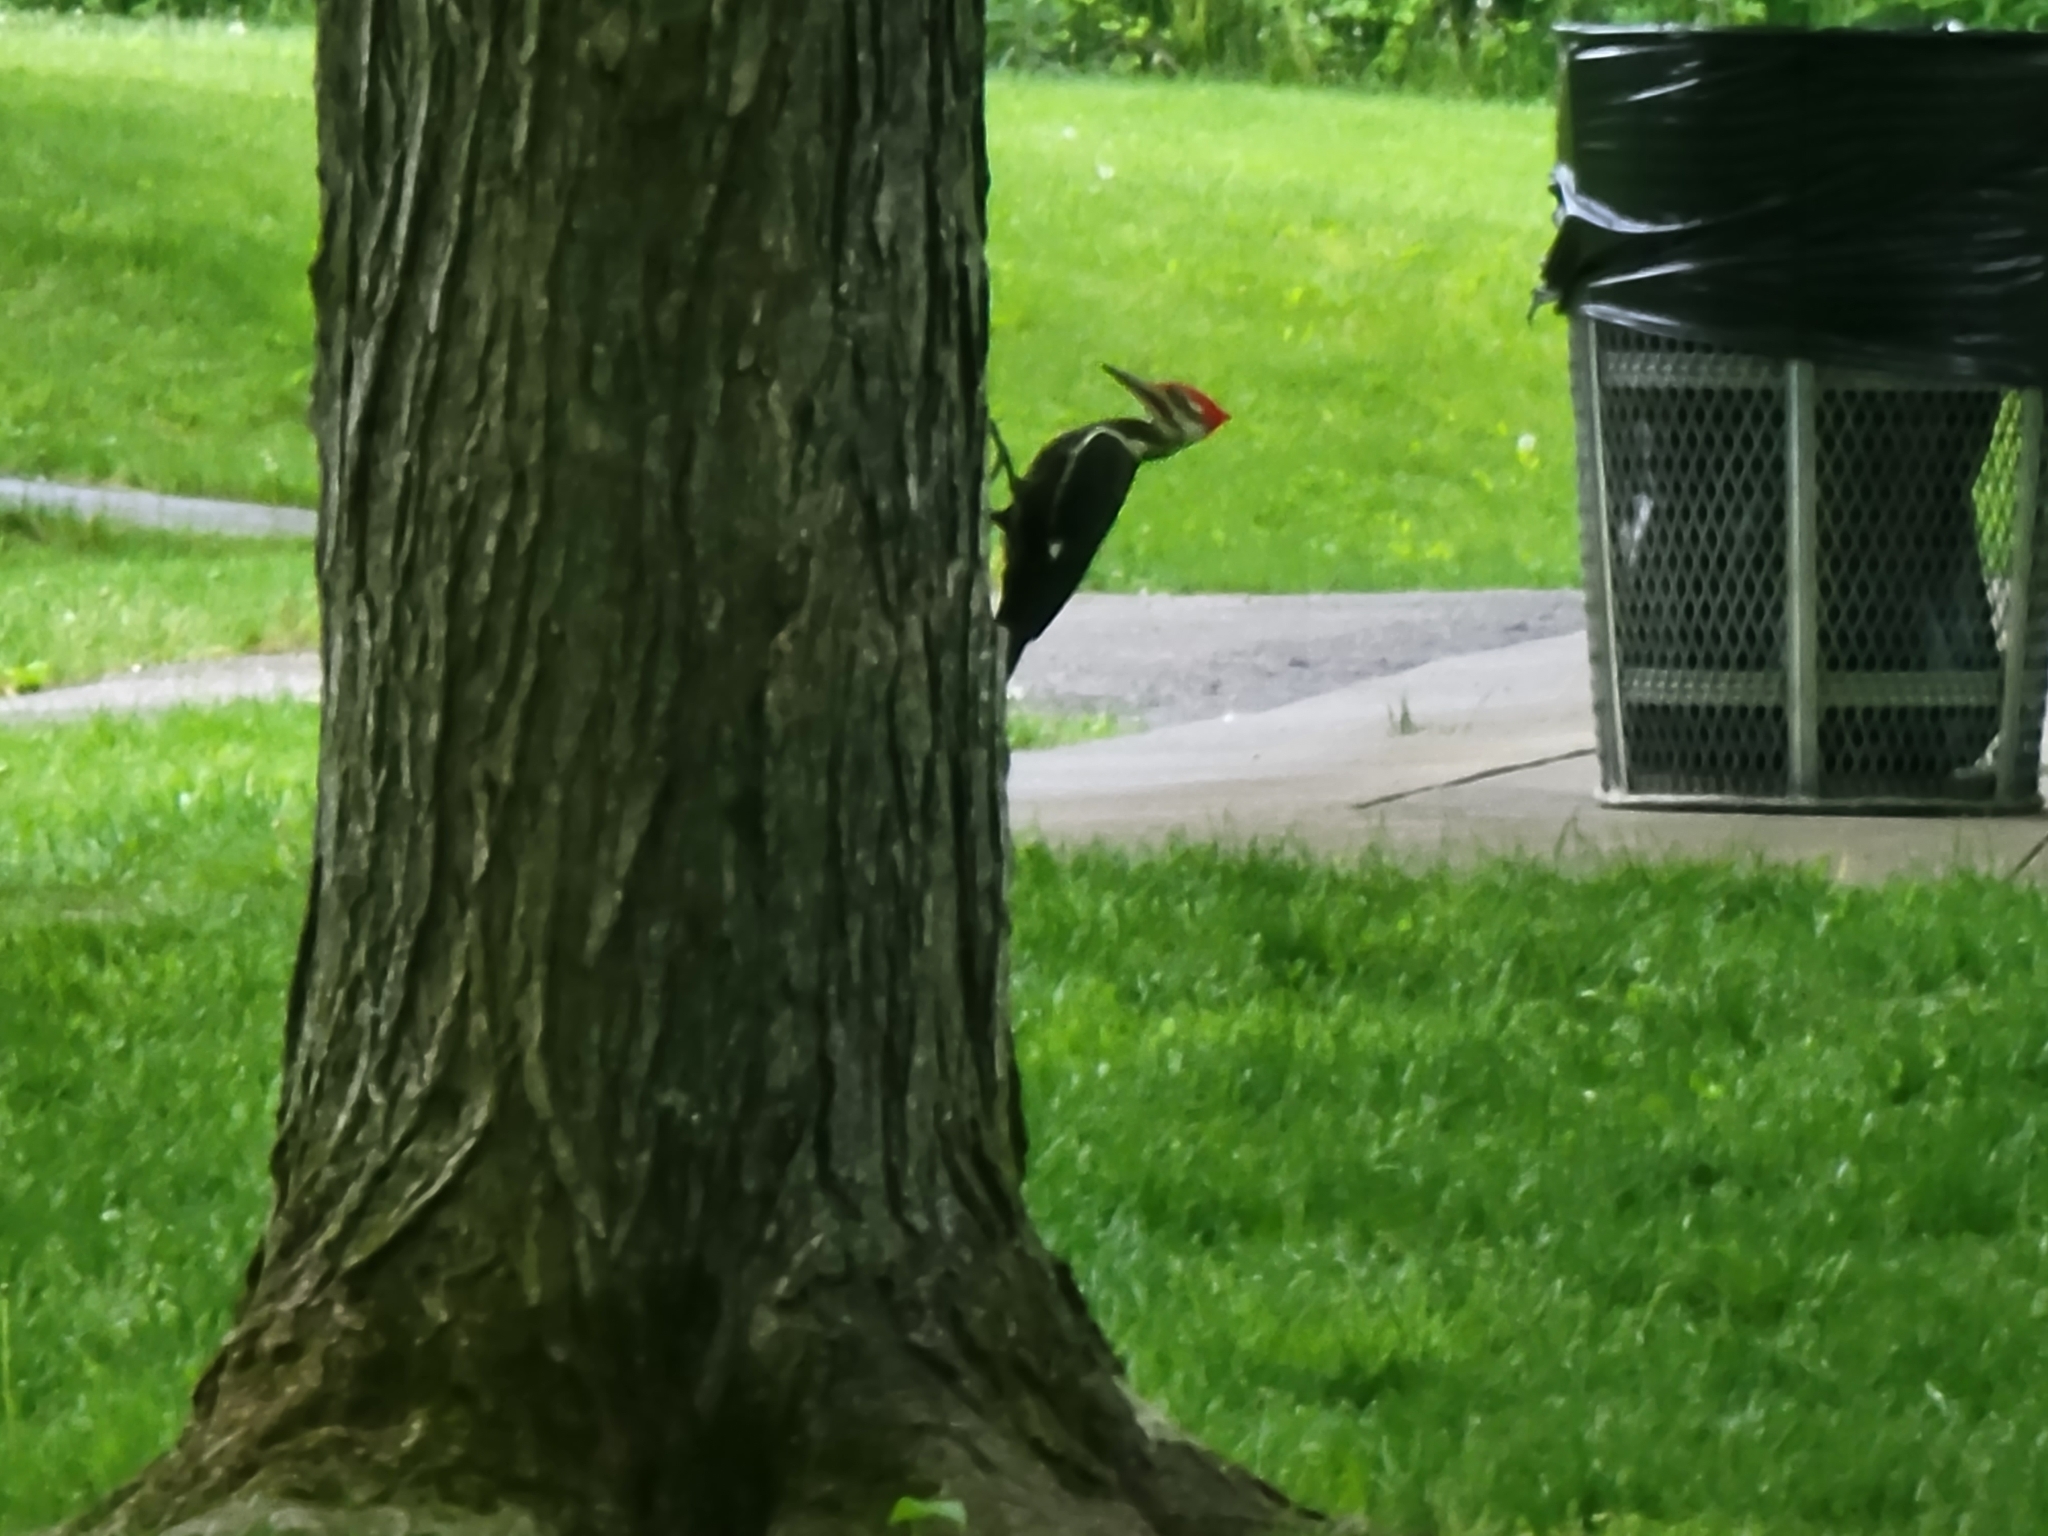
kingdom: Animalia
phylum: Chordata
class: Aves
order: Piciformes
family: Picidae
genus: Dryocopus
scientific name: Dryocopus pileatus
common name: Pileated woodpecker
